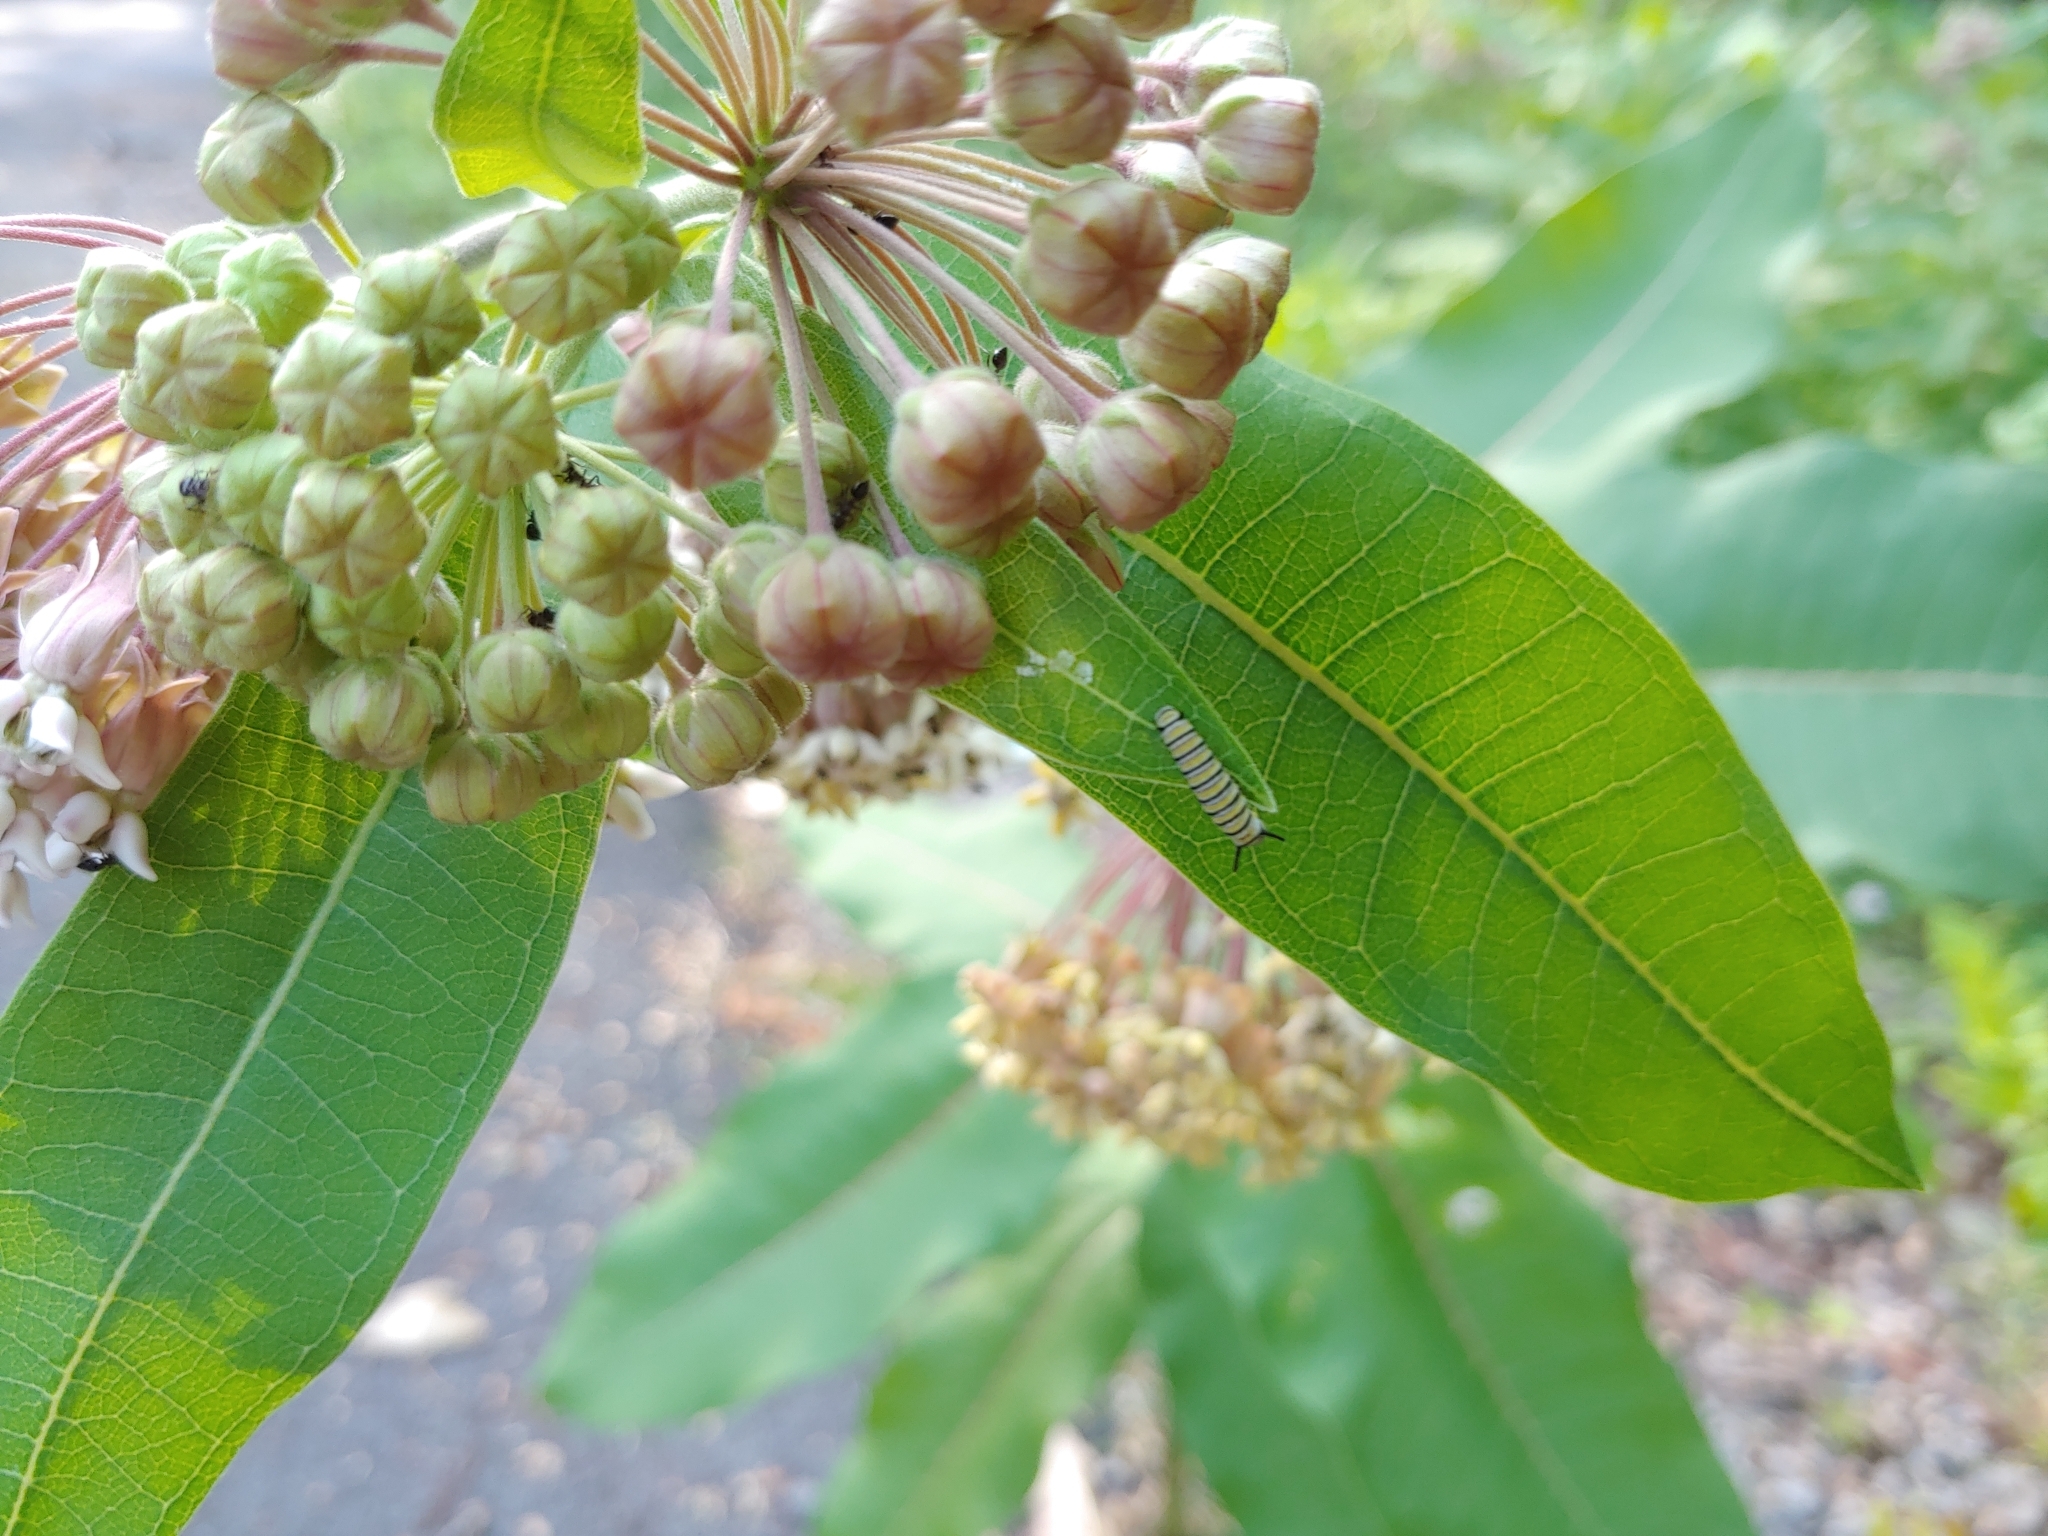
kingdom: Animalia
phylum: Arthropoda
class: Insecta
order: Lepidoptera
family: Nymphalidae
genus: Danaus
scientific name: Danaus plexippus
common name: Monarch
